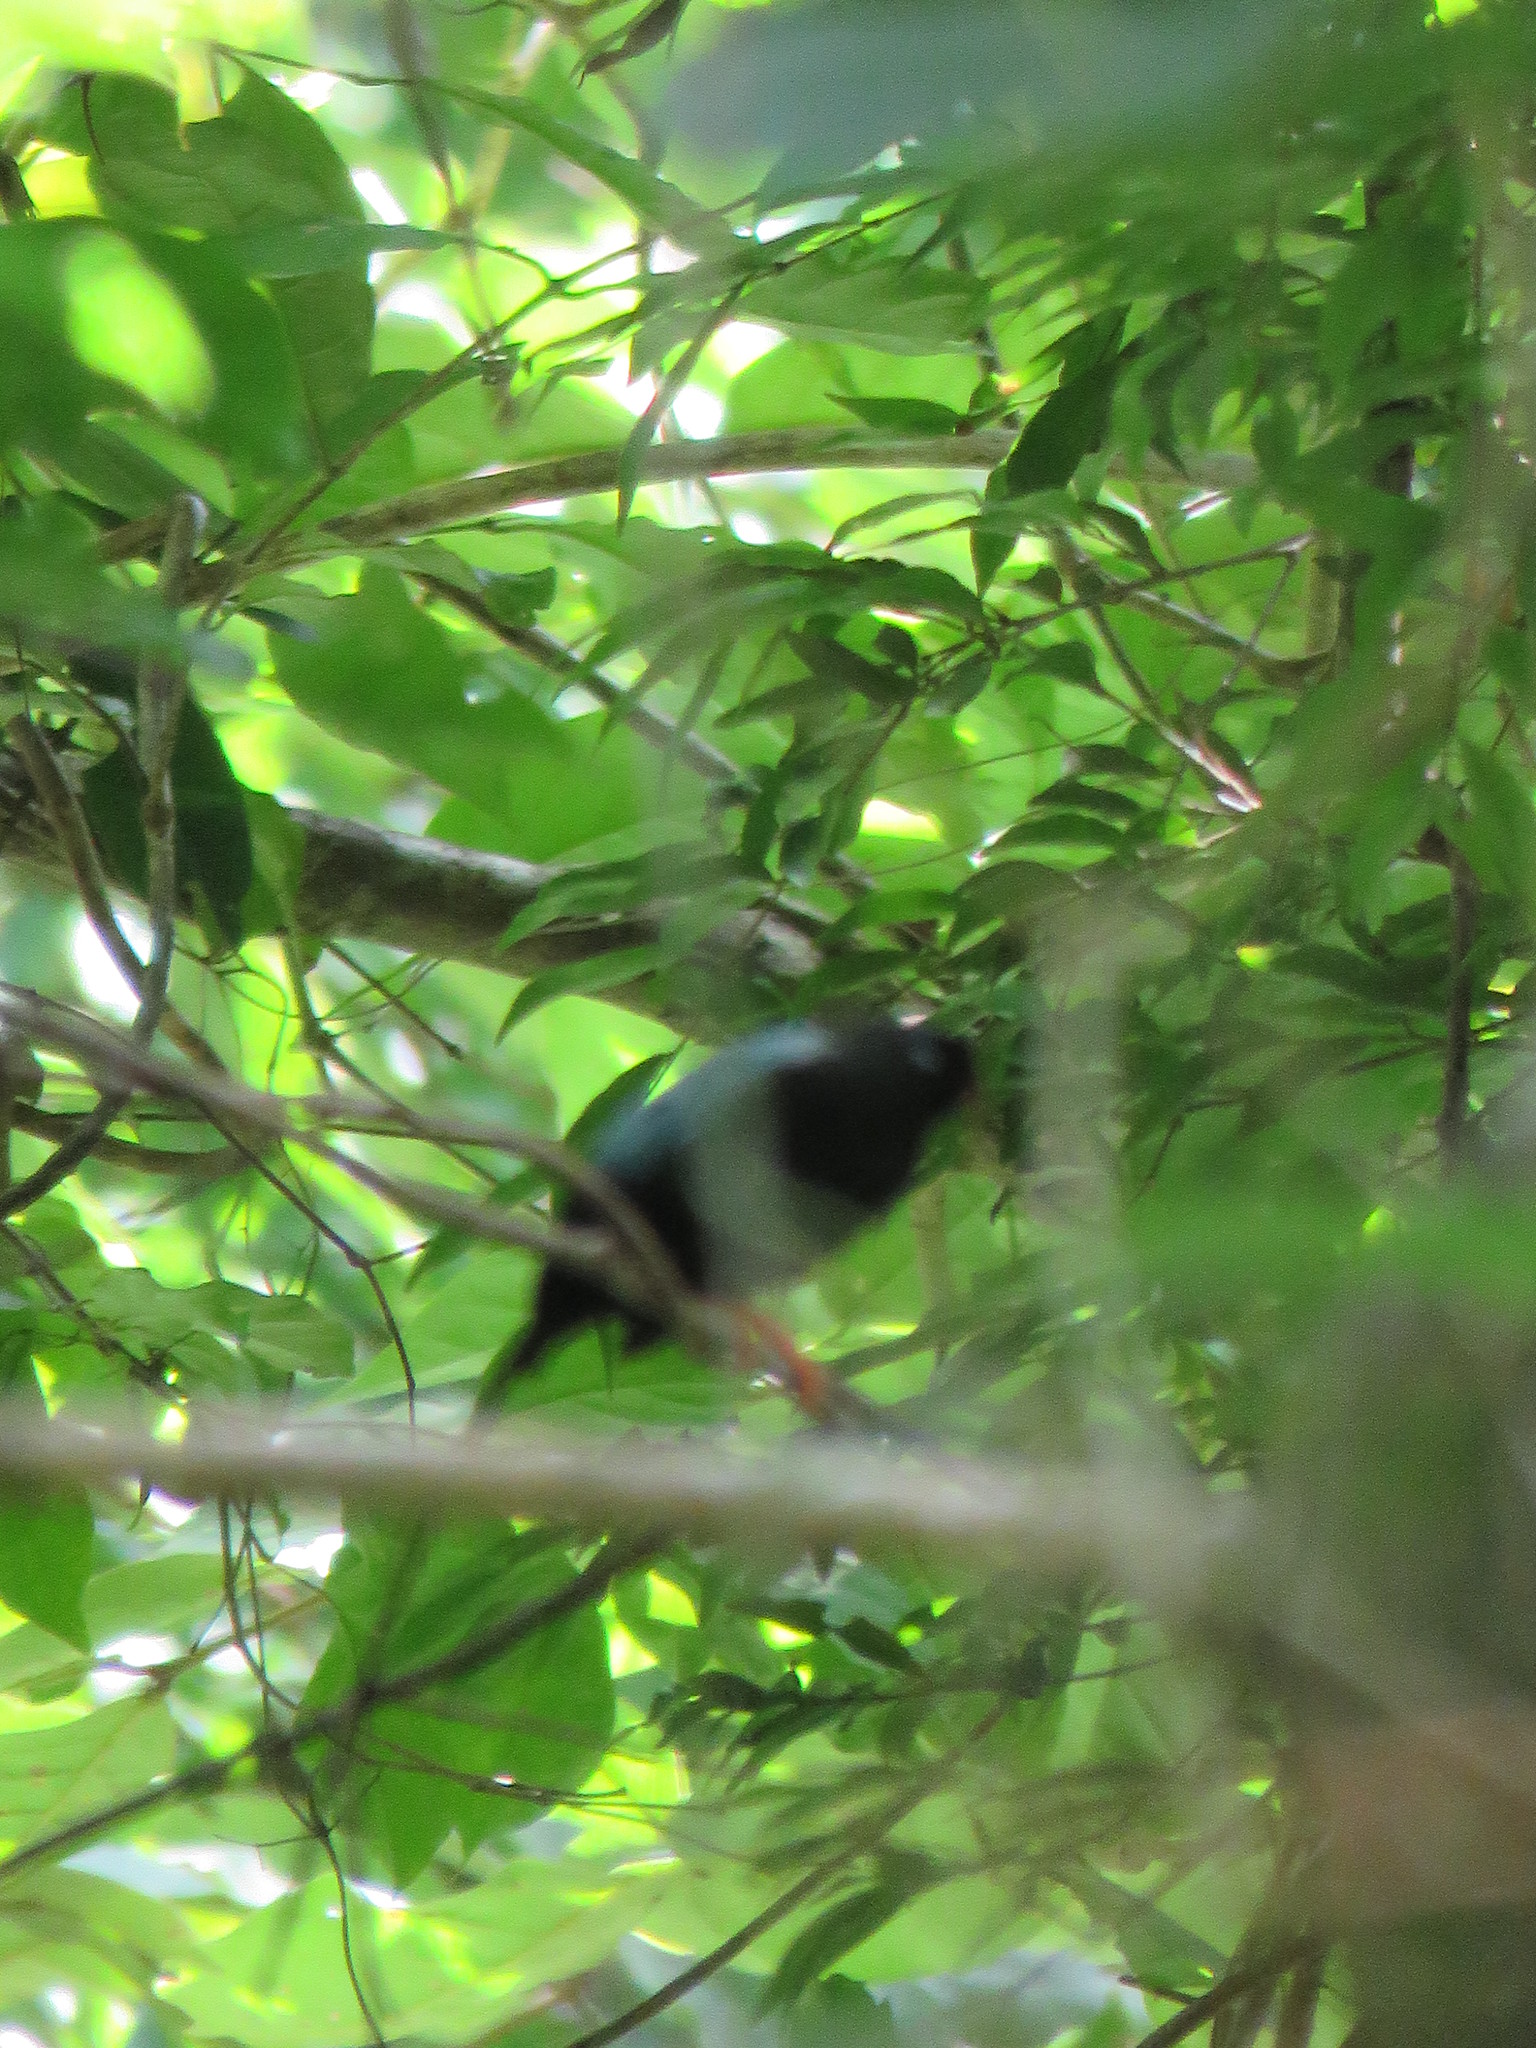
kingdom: Animalia
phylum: Chordata
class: Aves
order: Passeriformes
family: Pipridae
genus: Chiroxiphia
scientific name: Chiroxiphia linearis
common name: Long-tailed manakin
